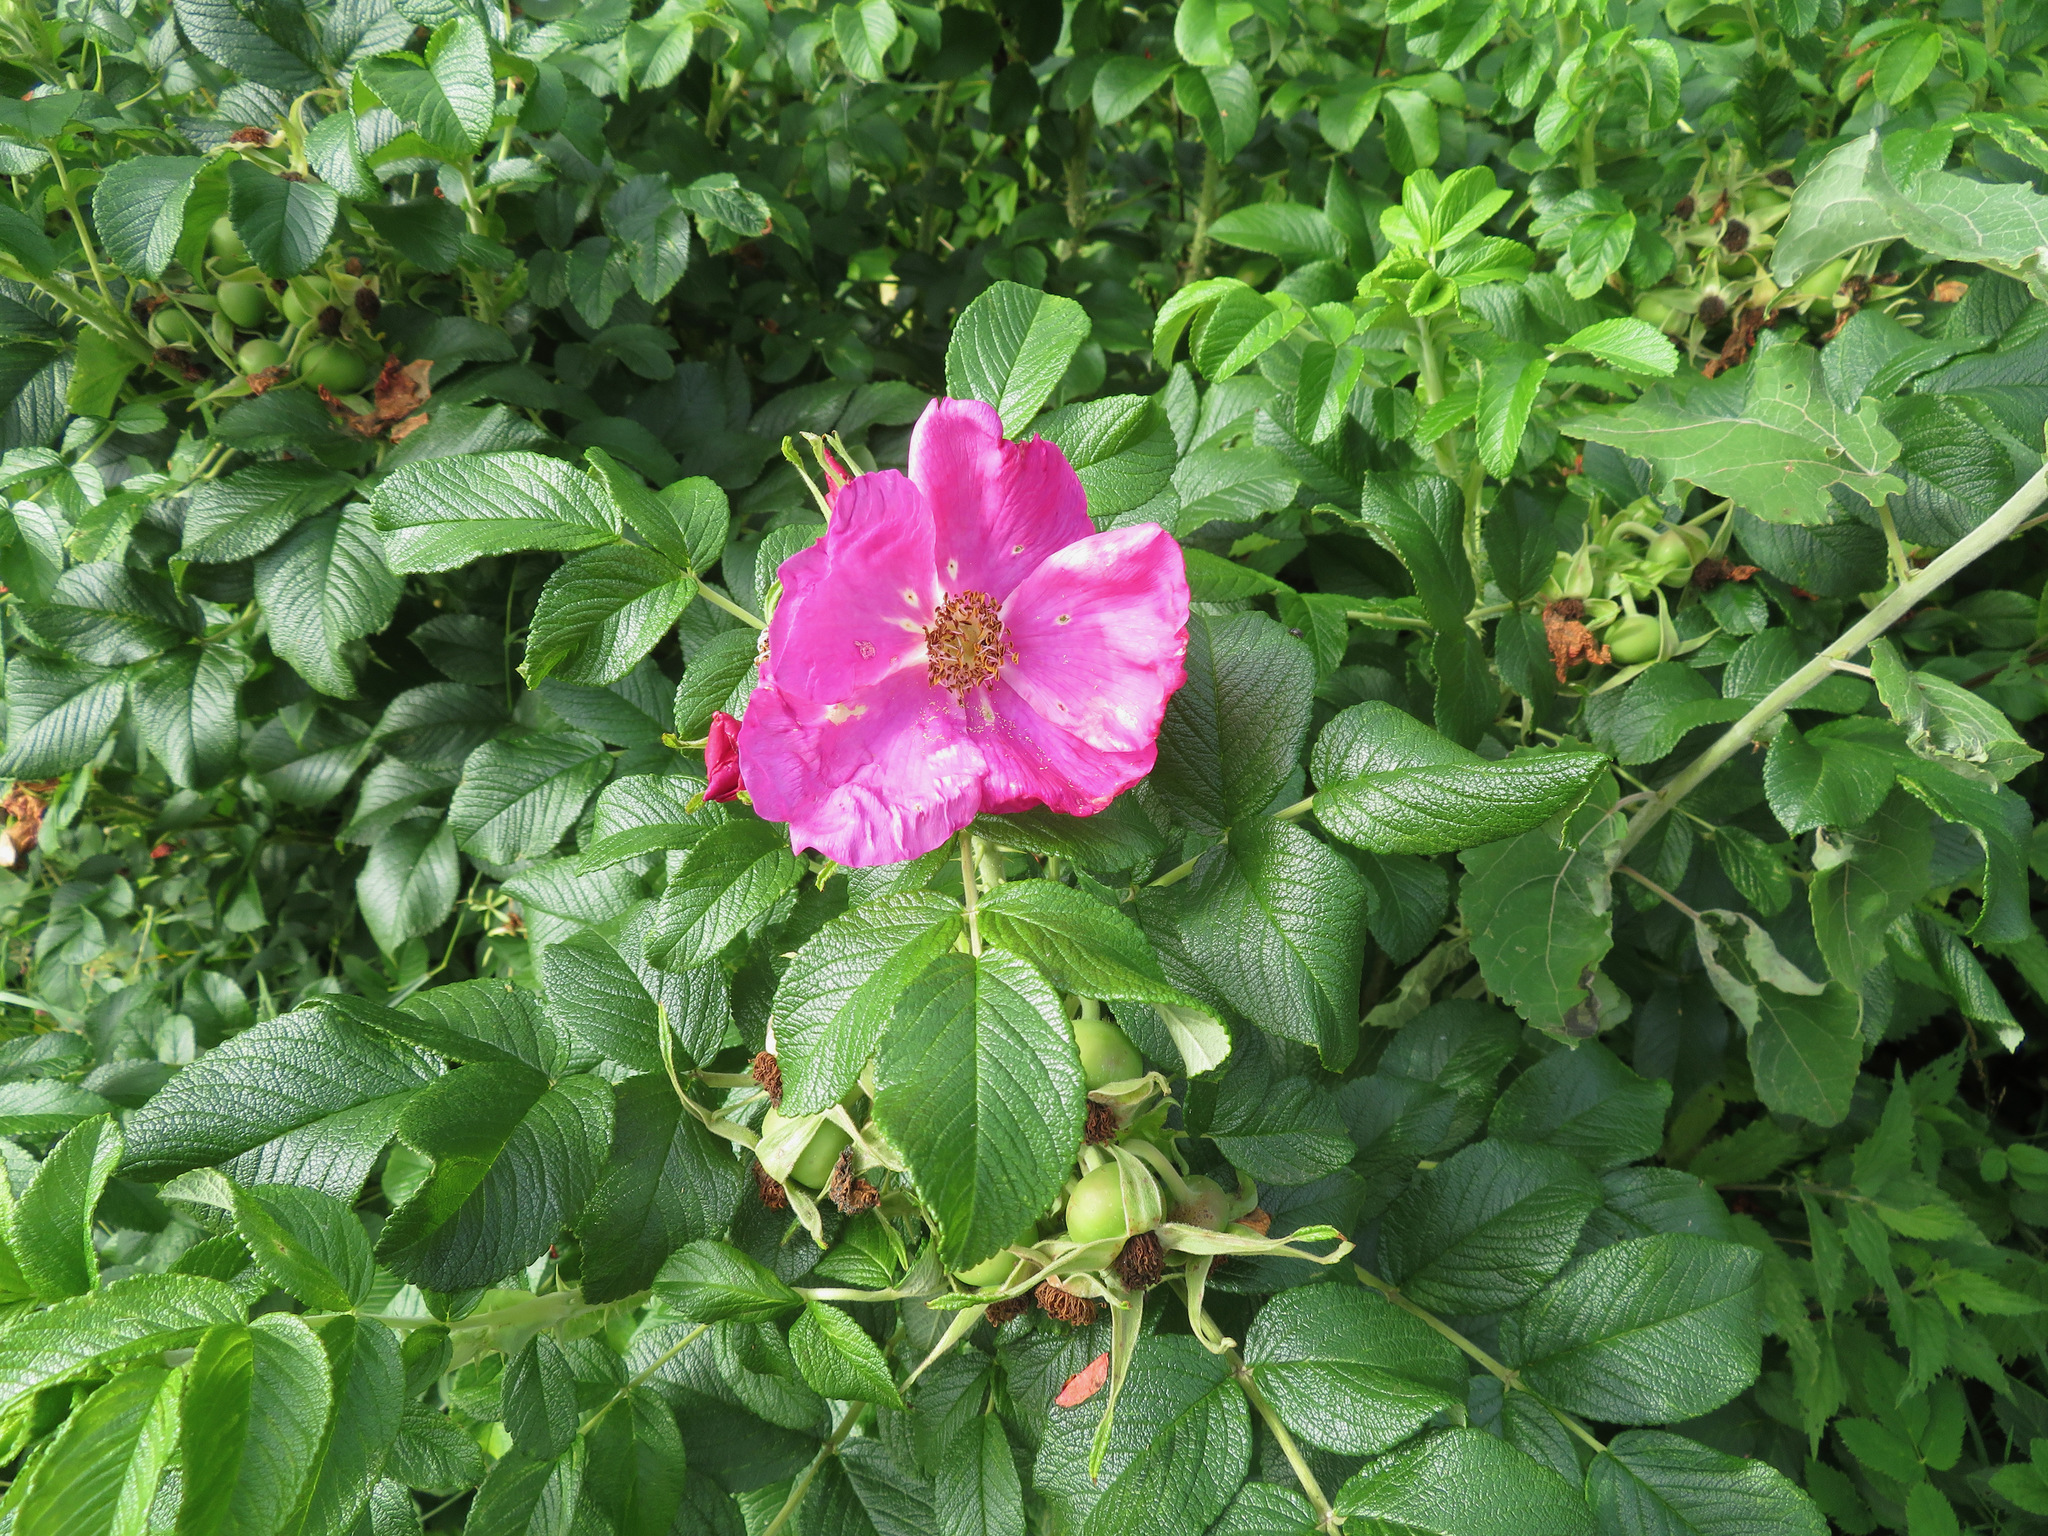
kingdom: Plantae
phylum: Tracheophyta
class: Magnoliopsida
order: Rosales
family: Rosaceae
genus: Rosa
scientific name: Rosa rugosa
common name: Japanese rose
